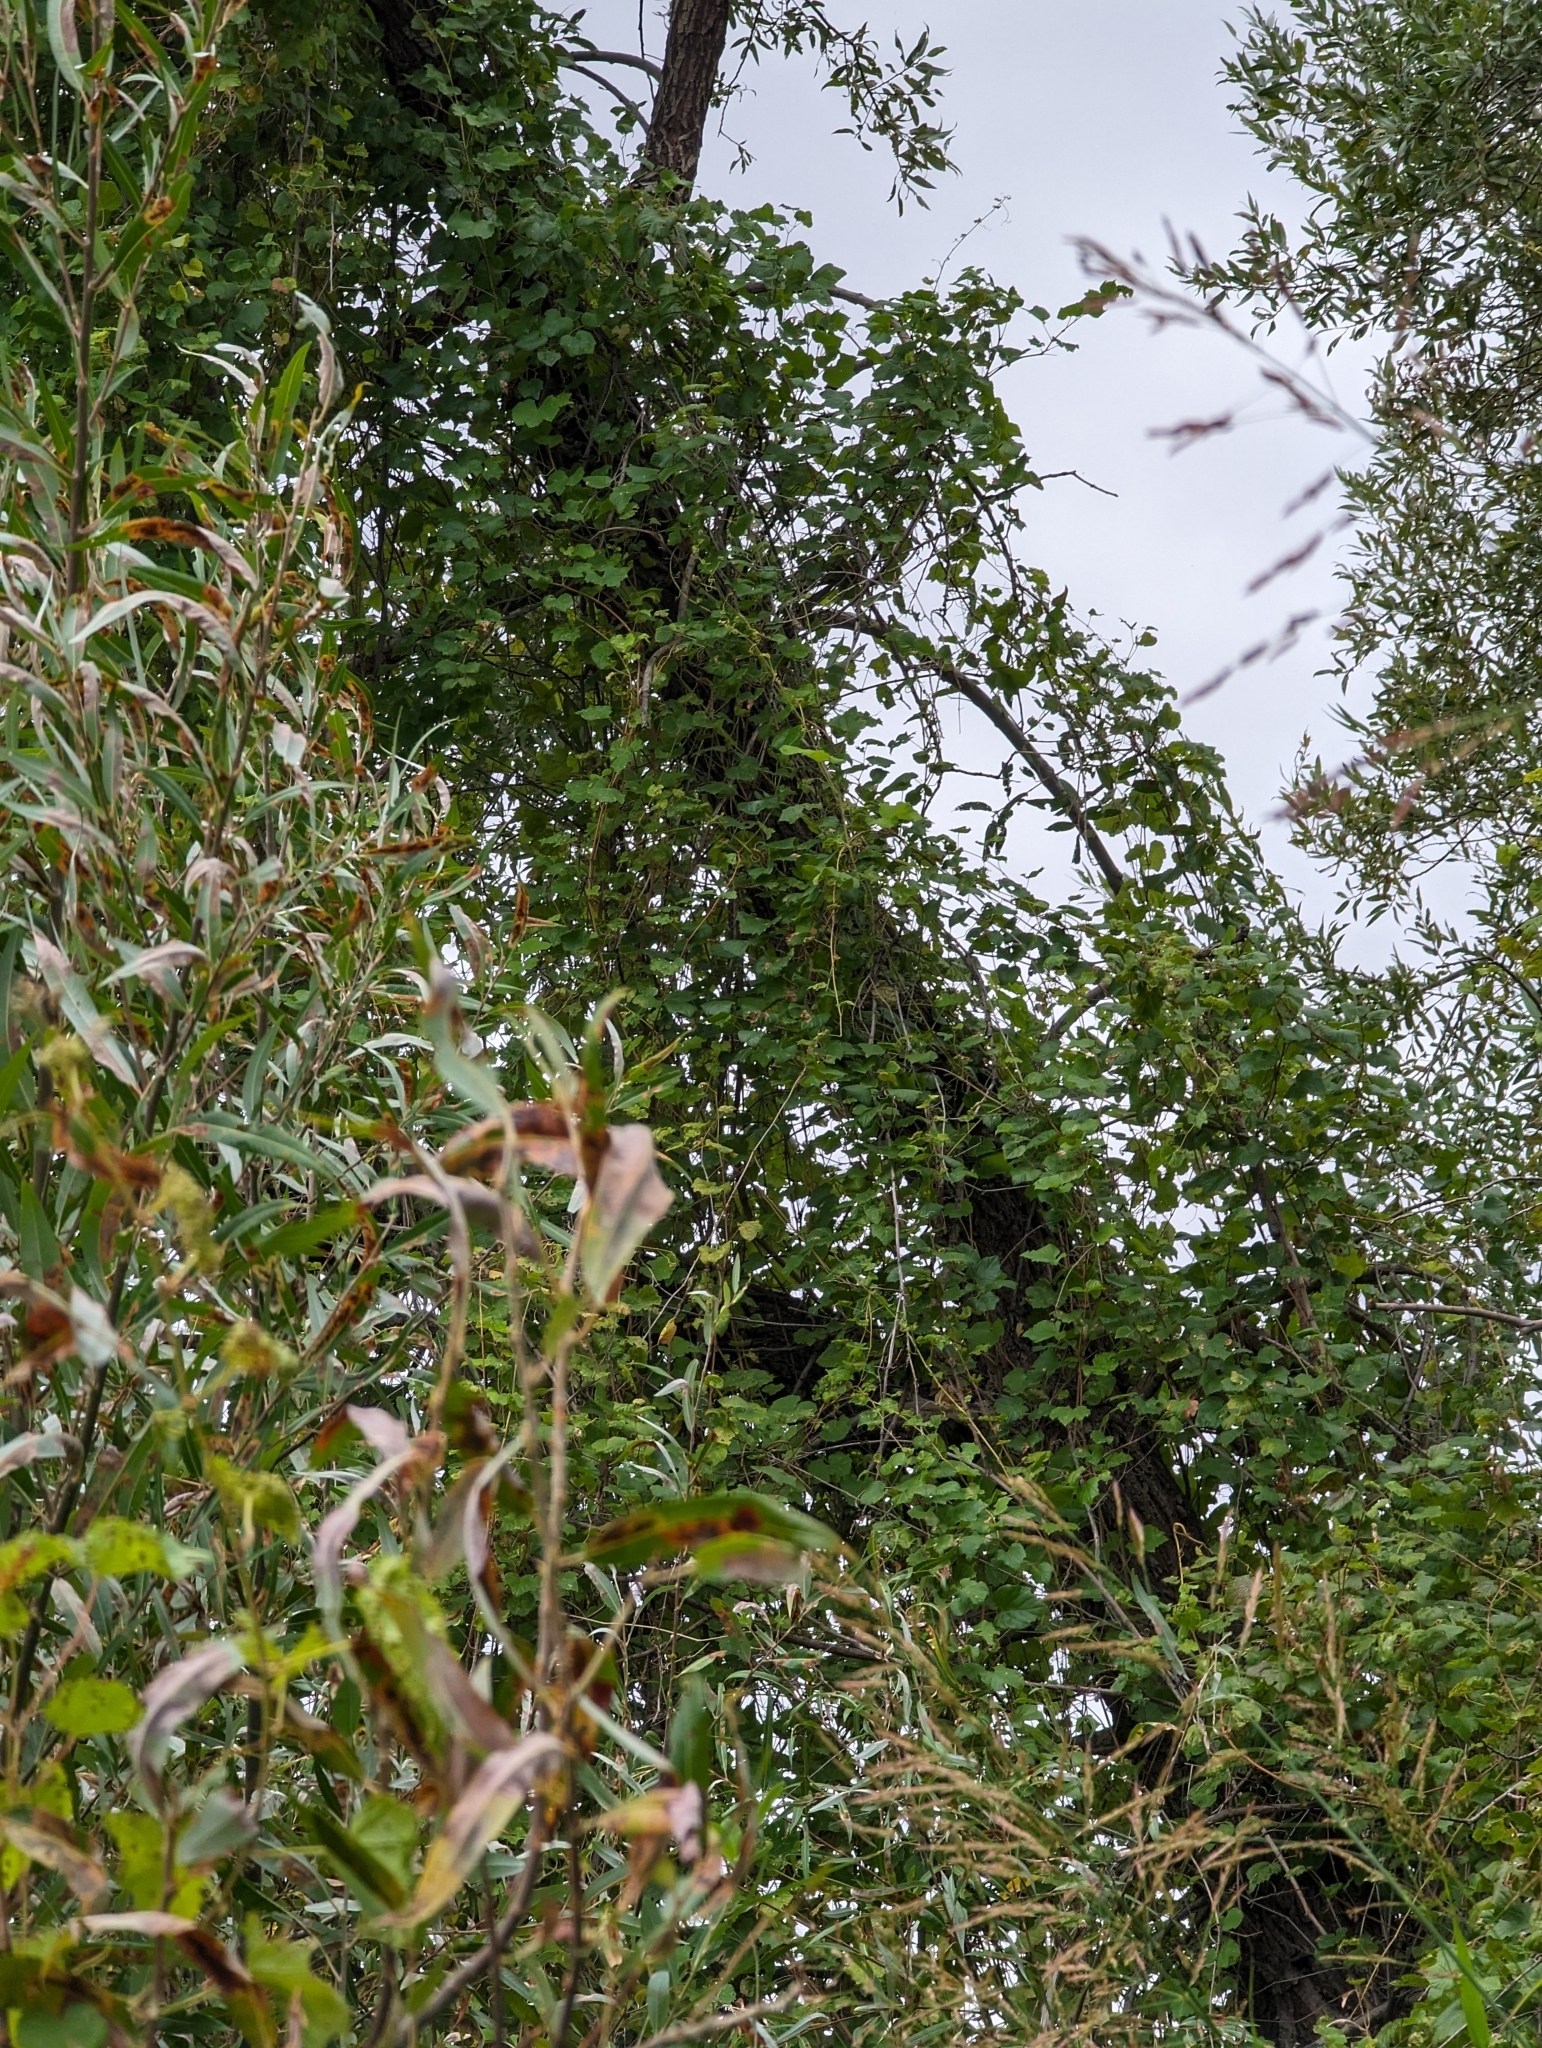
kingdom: Plantae
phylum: Tracheophyta
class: Magnoliopsida
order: Vitales
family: Vitaceae
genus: Vitis
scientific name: Vitis arizonica
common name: Canyon grape
